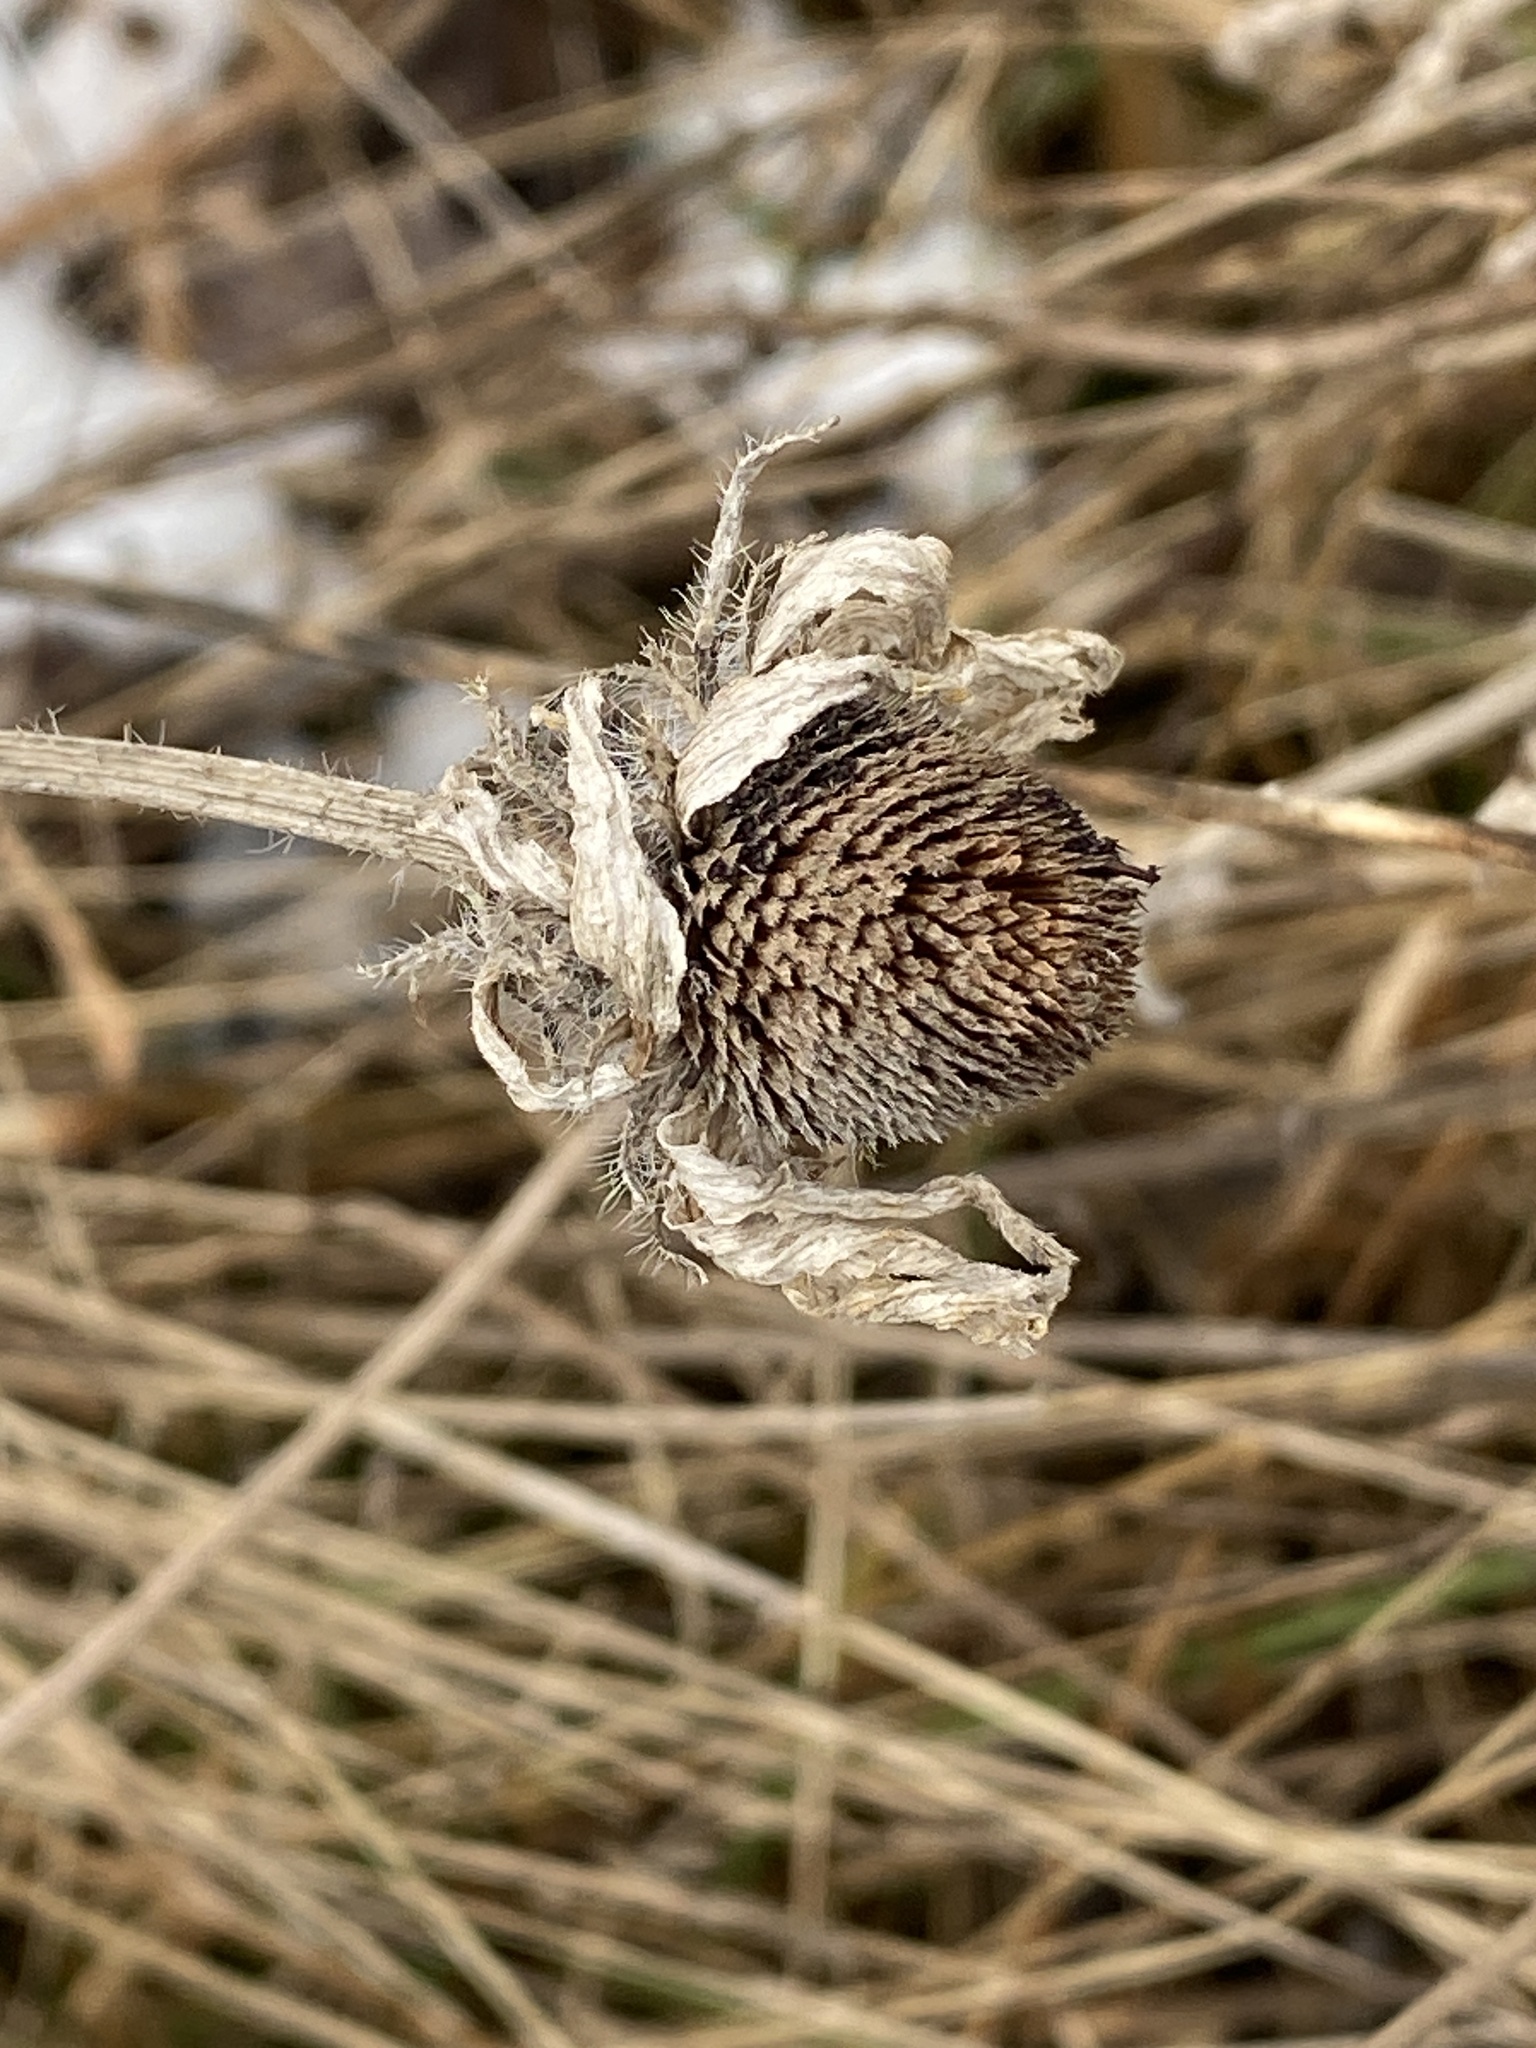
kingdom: Plantae
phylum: Tracheophyta
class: Magnoliopsida
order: Asterales
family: Asteraceae
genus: Rudbeckia
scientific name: Rudbeckia hirta
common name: Black-eyed-susan
